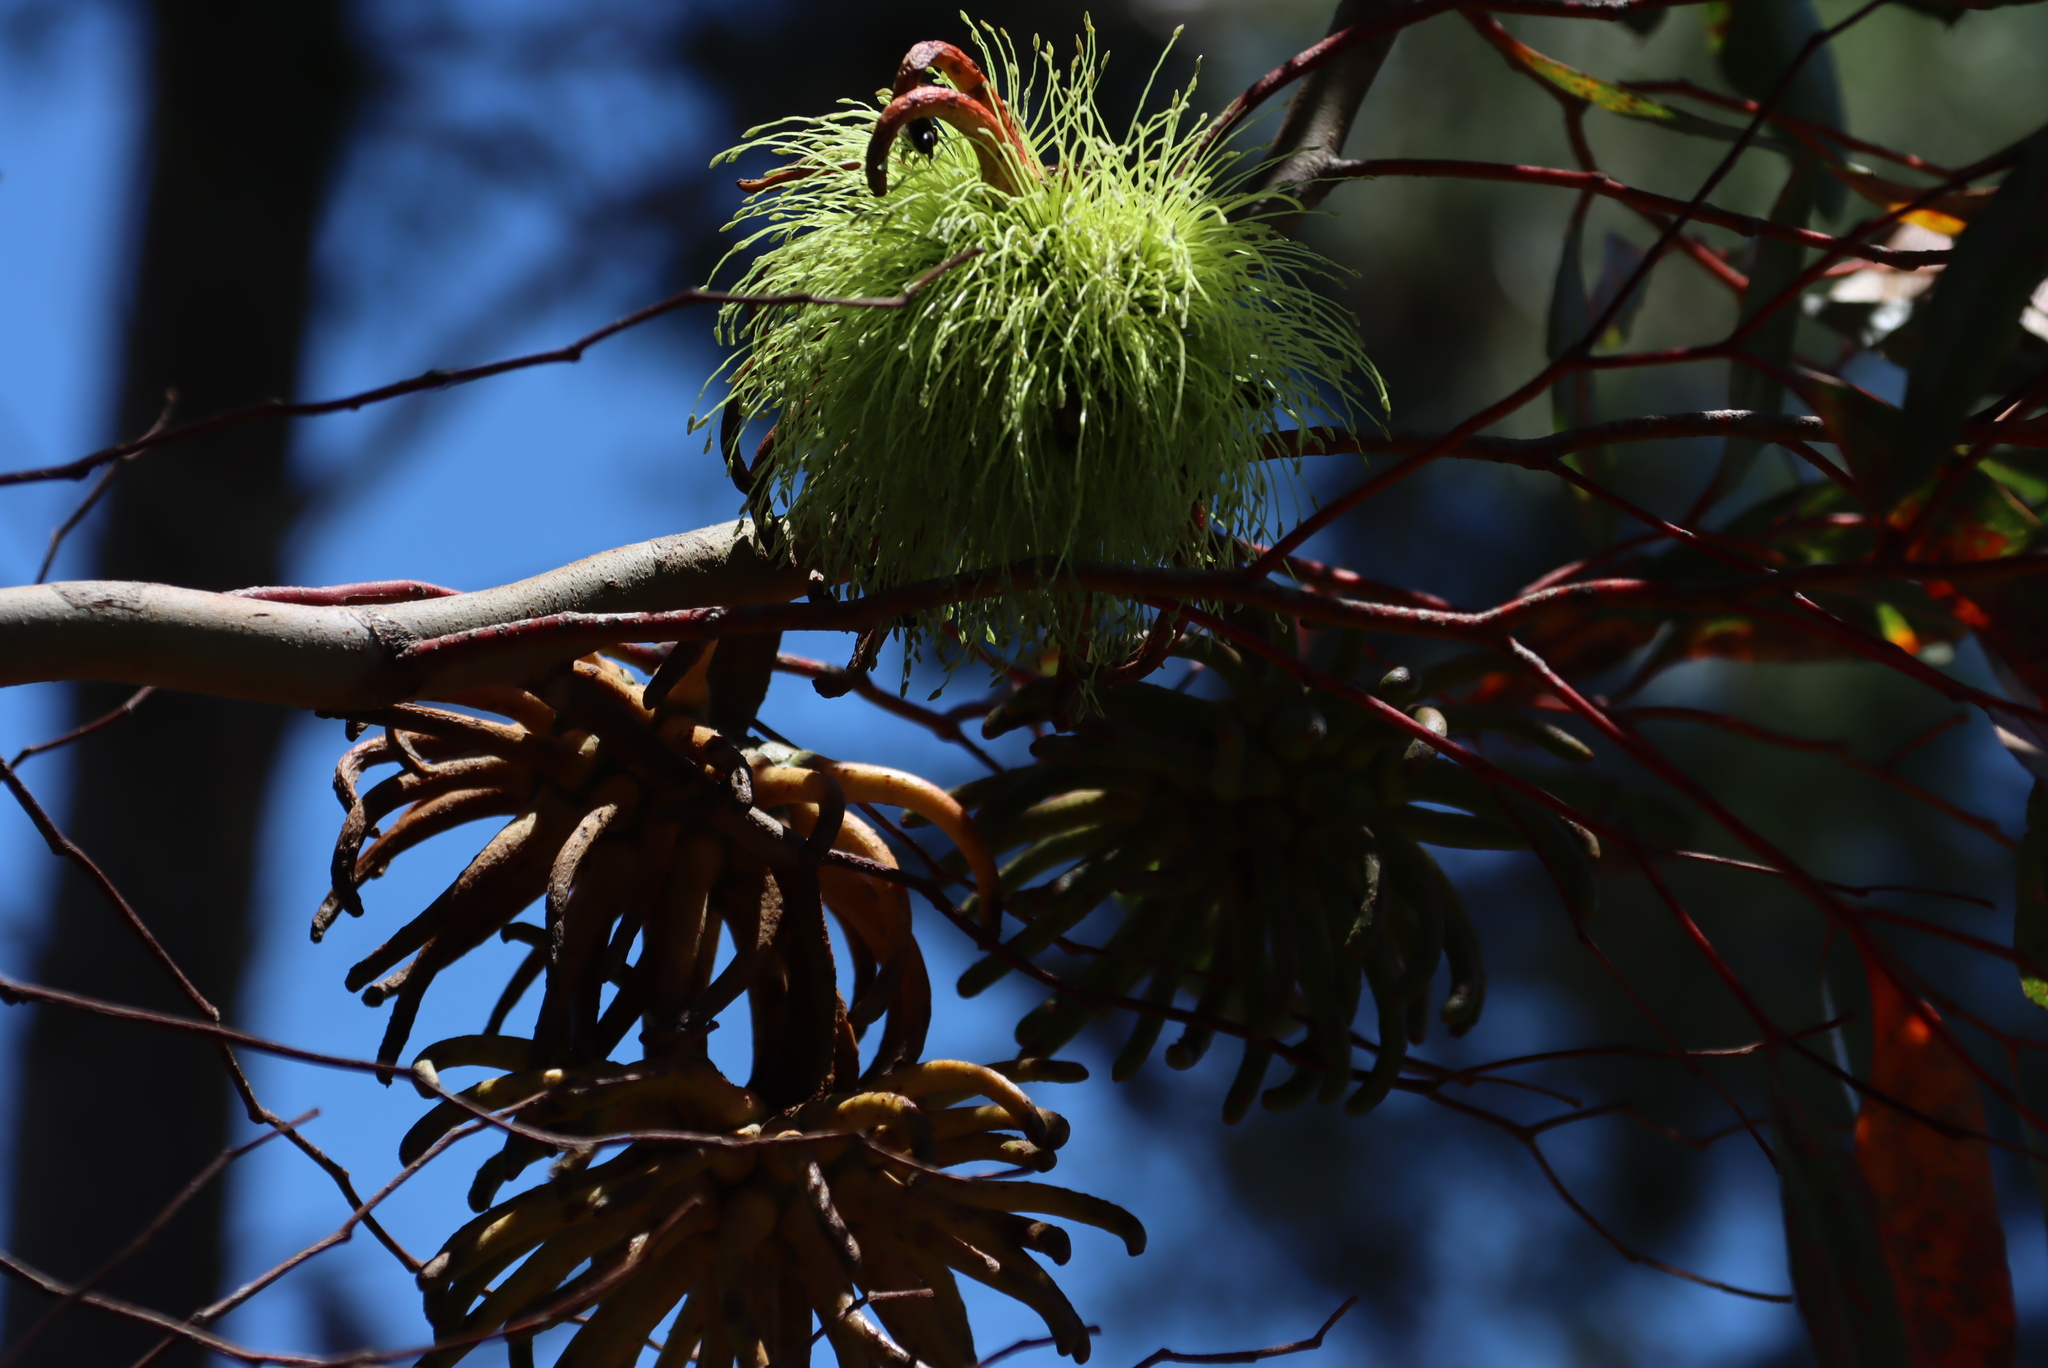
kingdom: Plantae
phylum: Tracheophyta
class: Magnoliopsida
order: Myrtales
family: Myrtaceae
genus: Eucalyptus
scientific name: Eucalyptus conferruminata
